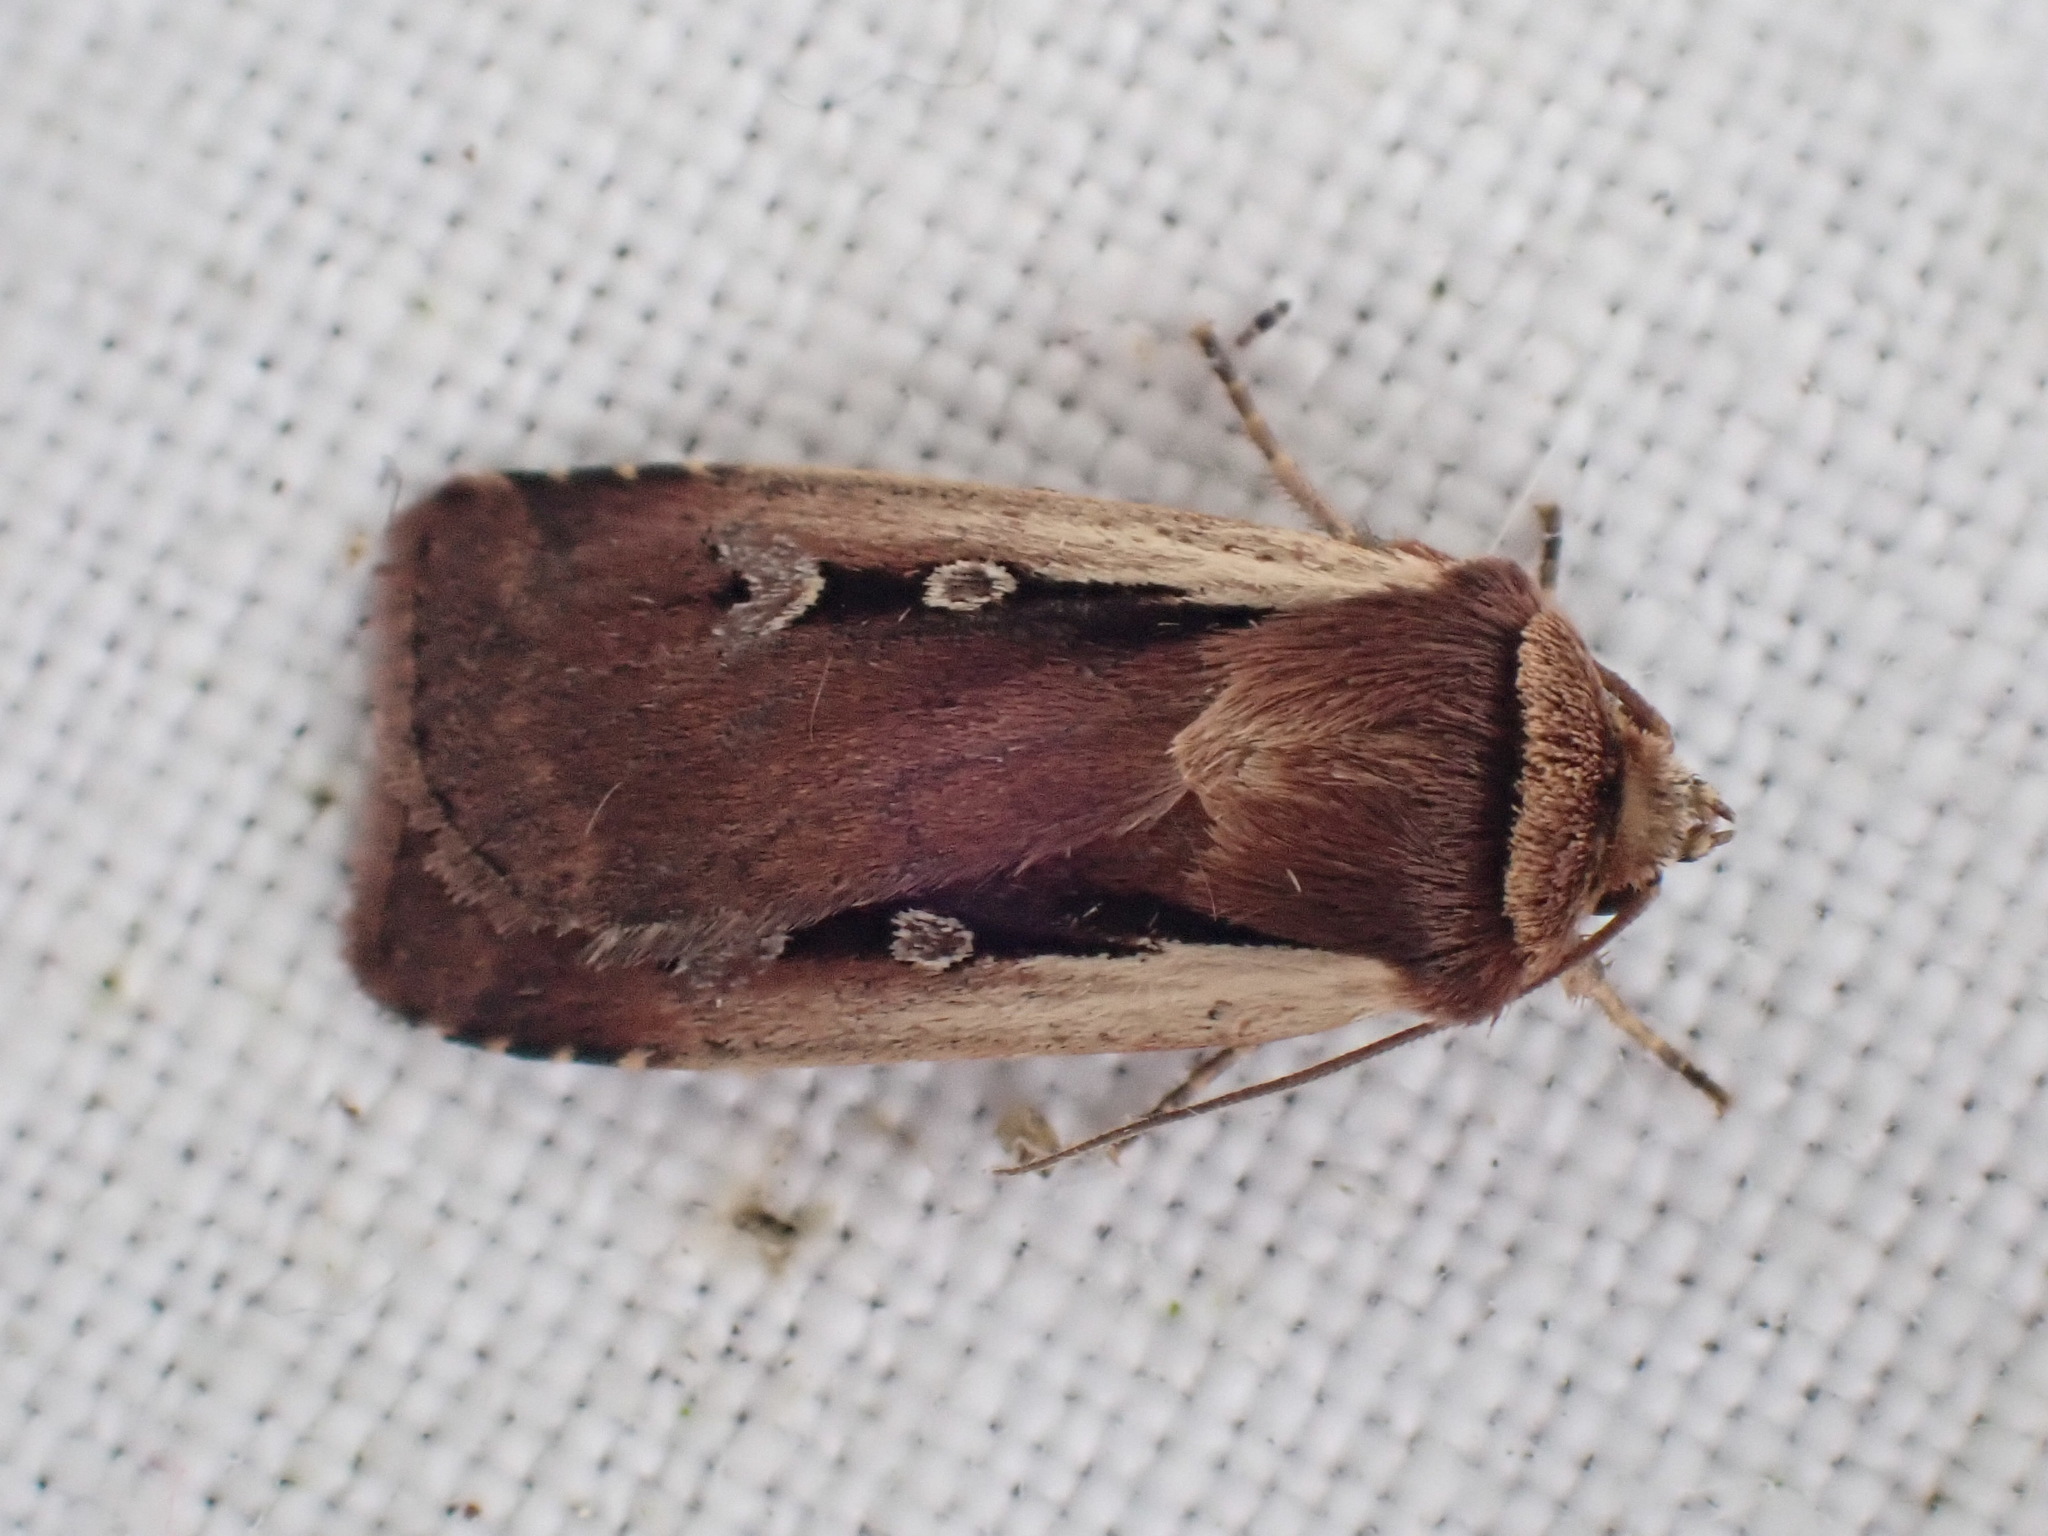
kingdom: Animalia
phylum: Arthropoda
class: Insecta
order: Lepidoptera
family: Noctuidae
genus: Ochropleura
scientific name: Ochropleura plecta
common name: Flame shoulder
